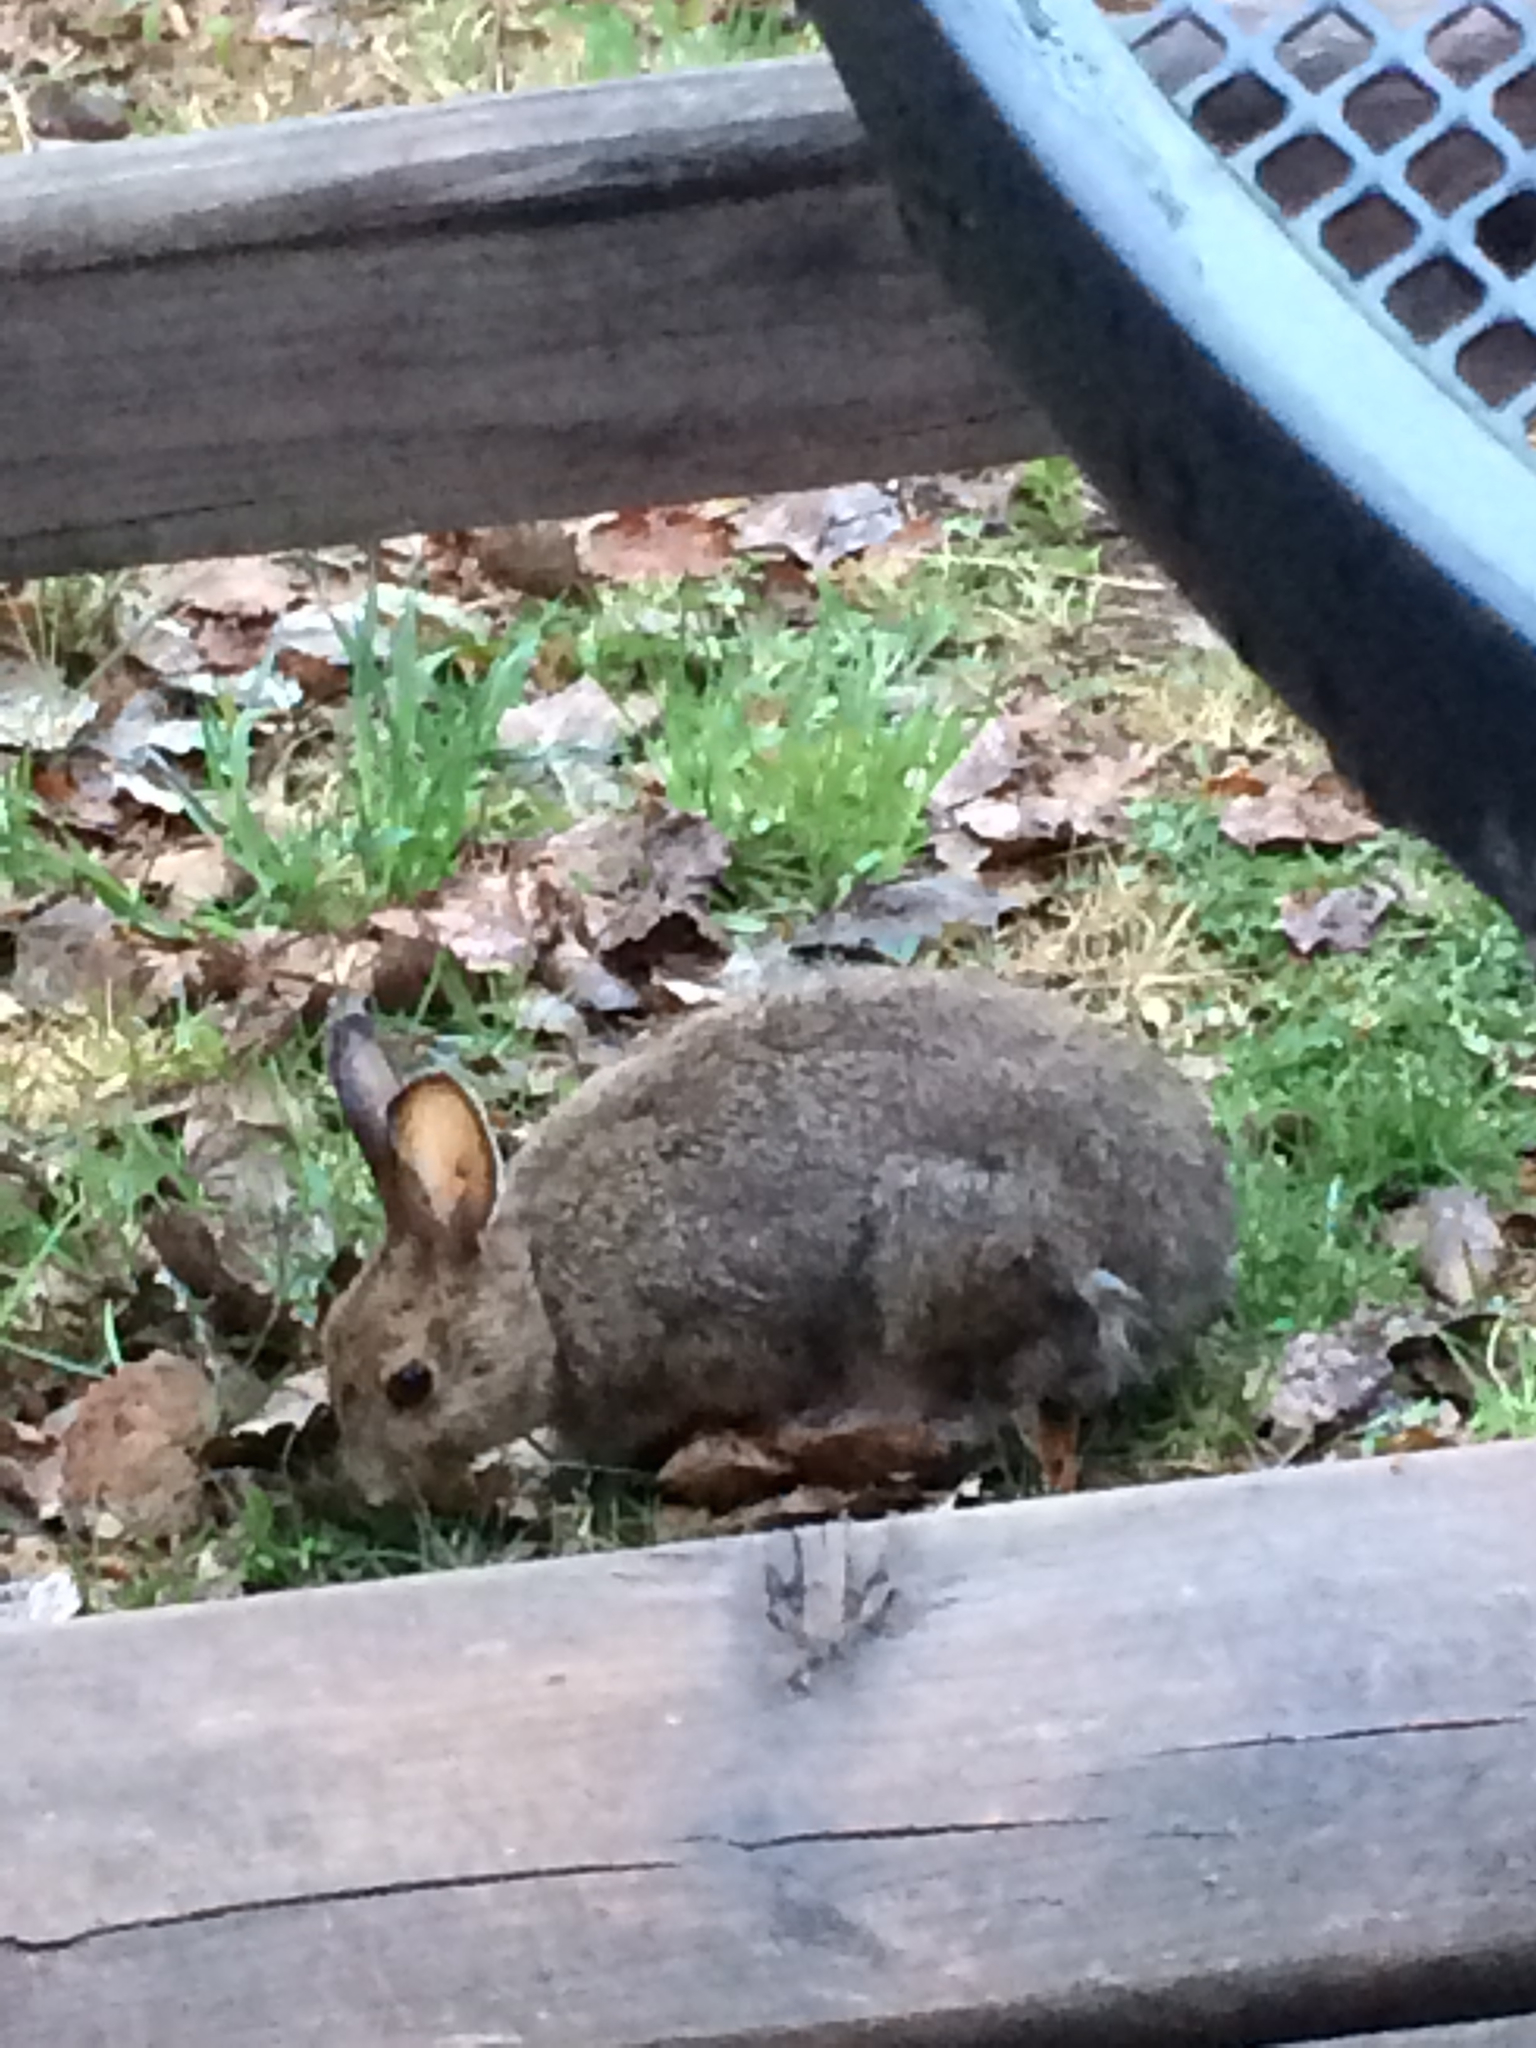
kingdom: Animalia
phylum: Chordata
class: Mammalia
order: Lagomorpha
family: Leporidae
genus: Lepus
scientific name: Lepus americanus
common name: Snowshoe hare
